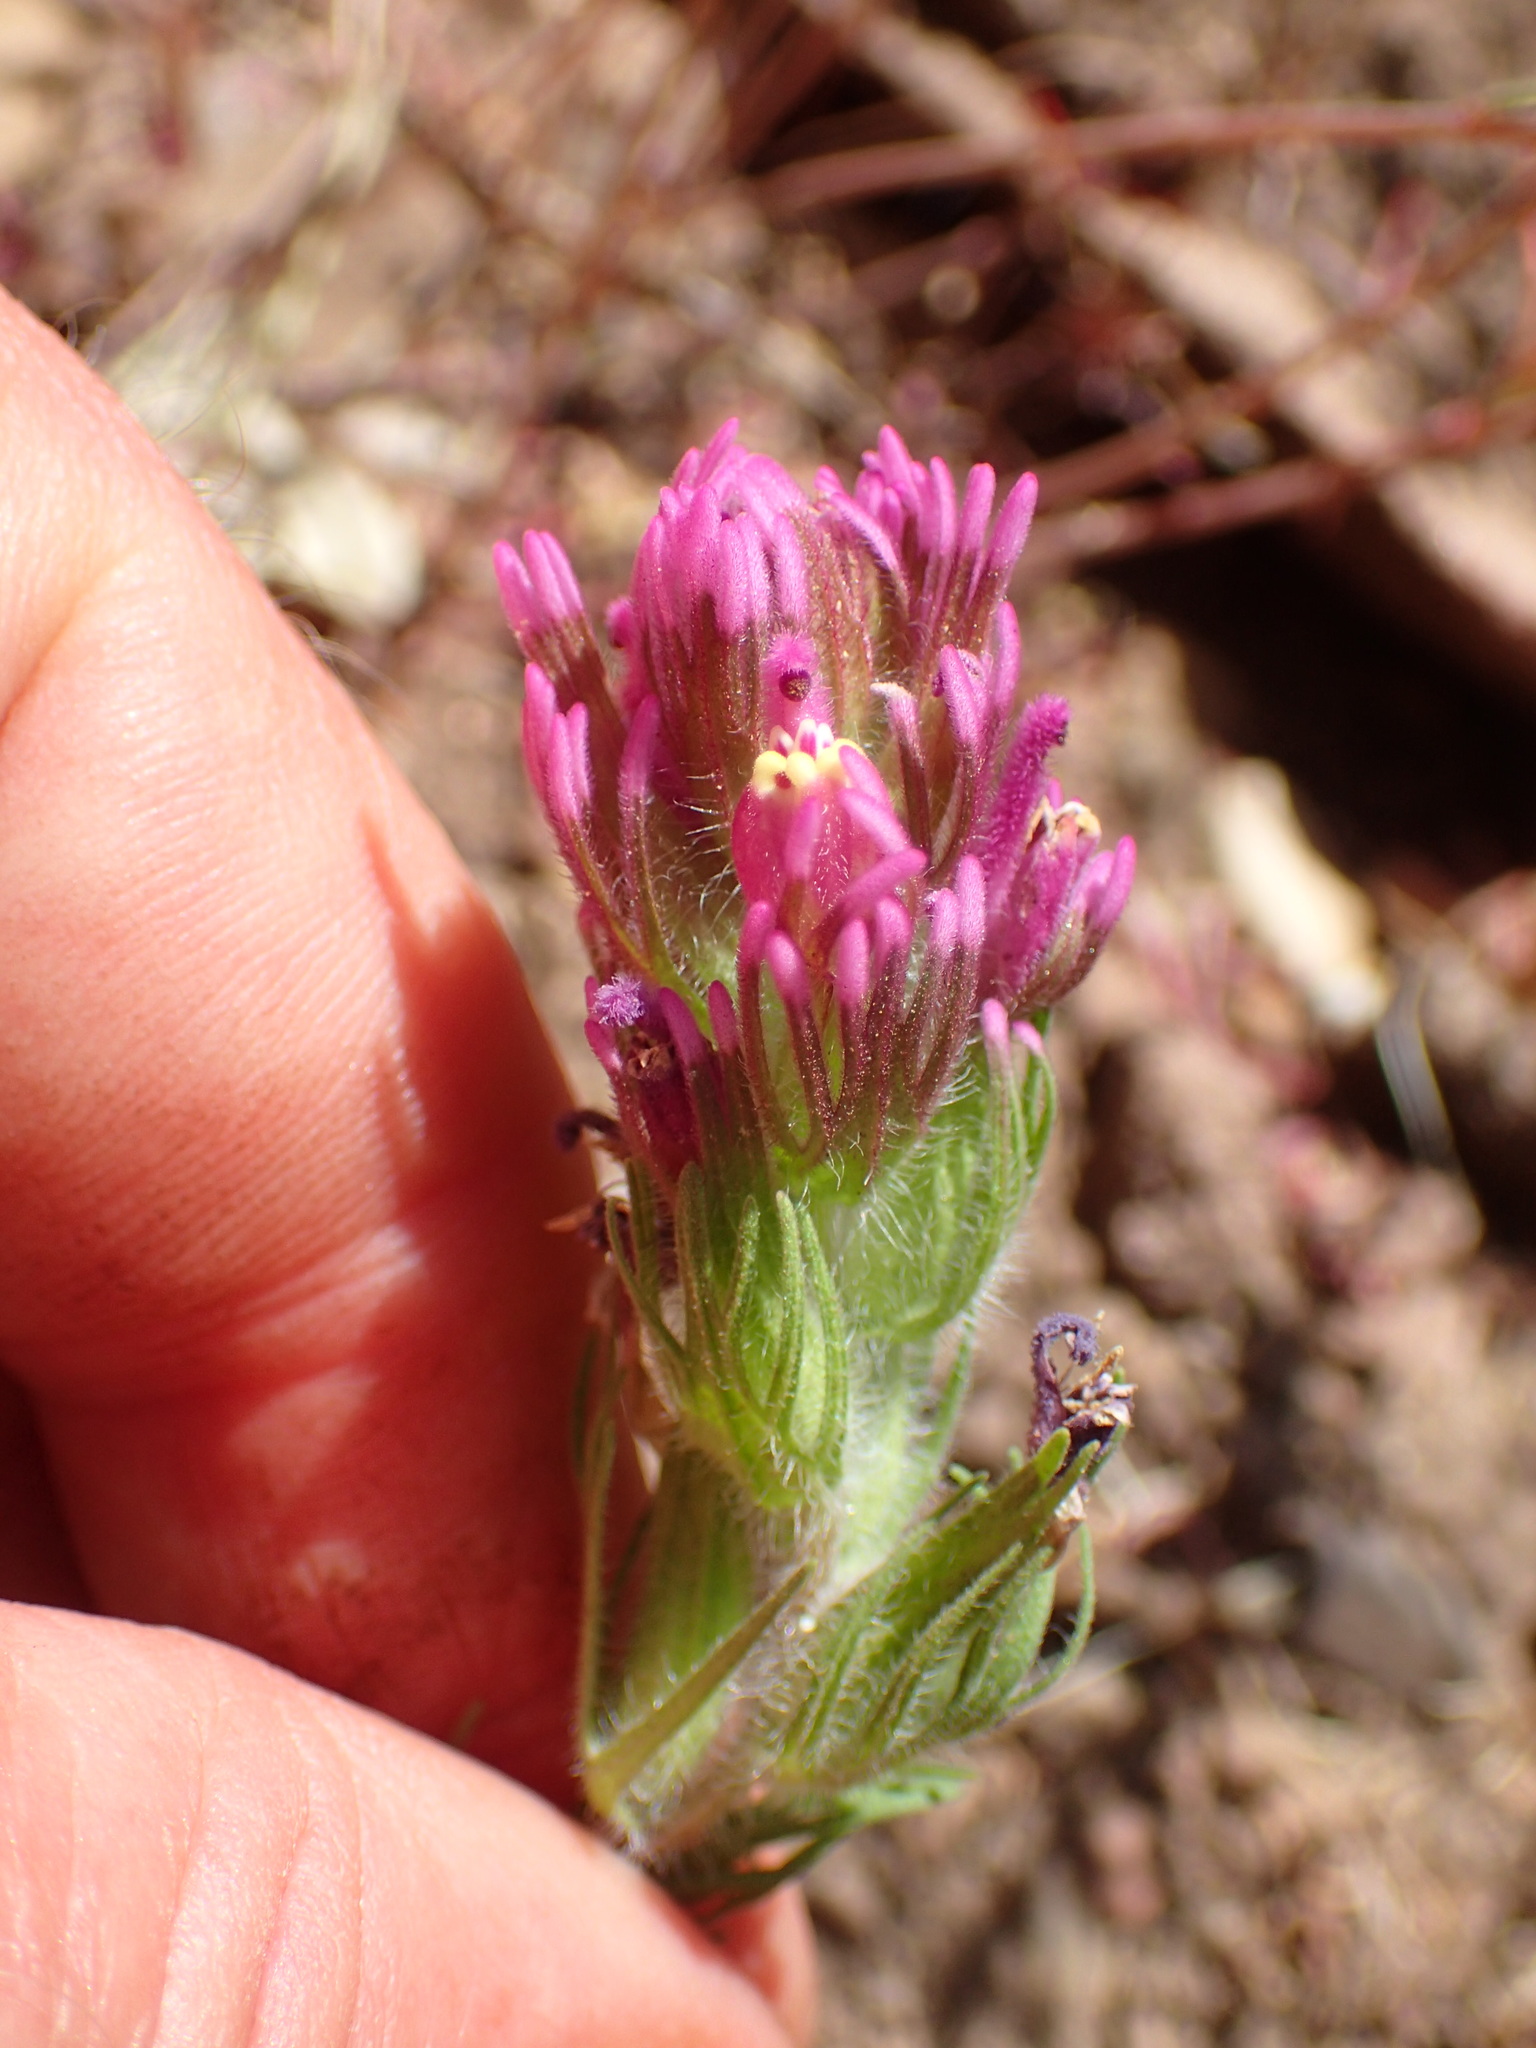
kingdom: Plantae
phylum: Tracheophyta
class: Magnoliopsida
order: Lamiales
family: Orobanchaceae
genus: Castilleja
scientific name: Castilleja exserta
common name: Purple owl-clover
